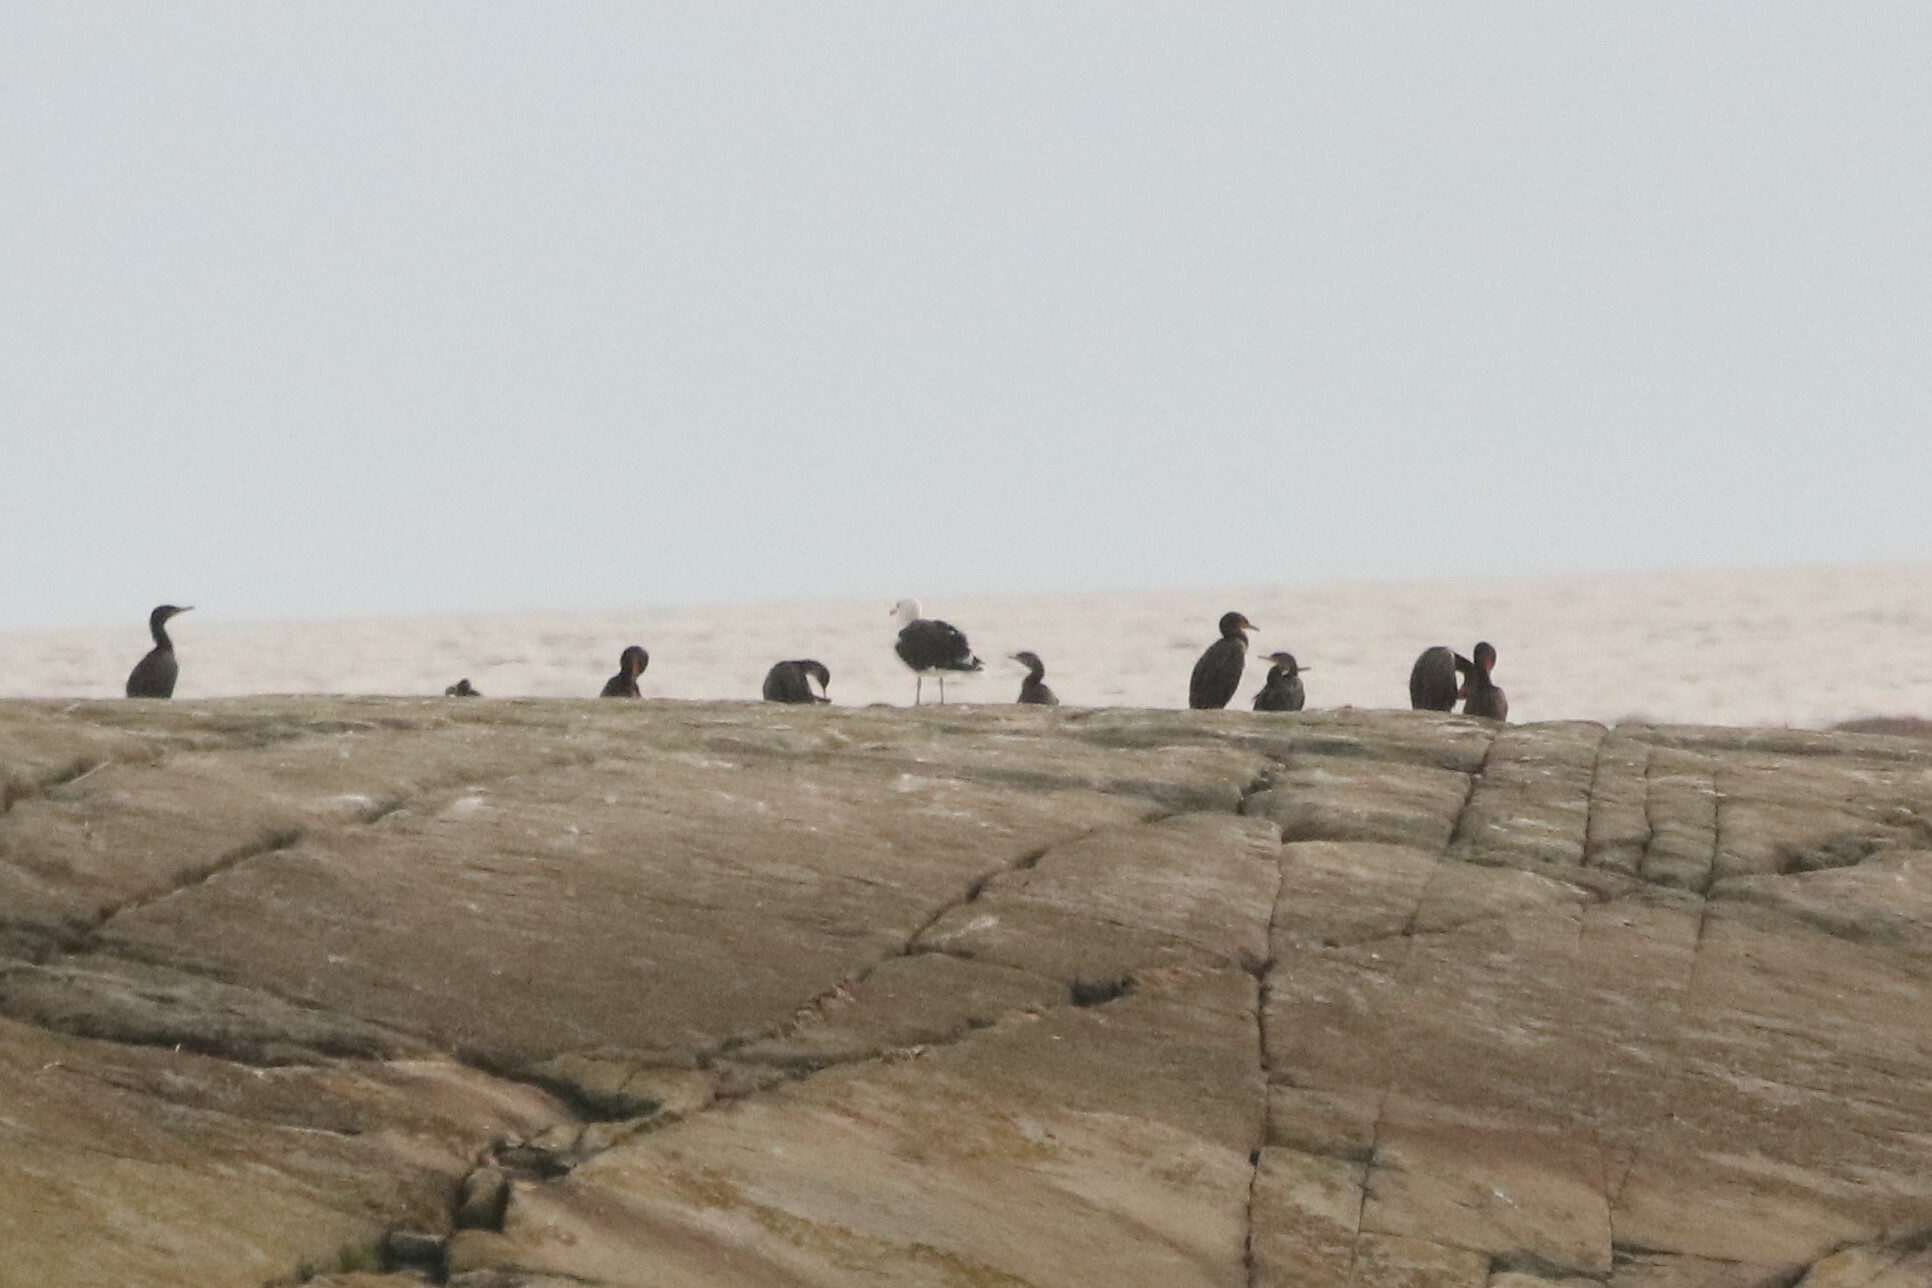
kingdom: Animalia
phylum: Chordata
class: Aves
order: Suliformes
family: Phalacrocoracidae
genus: Phalacrocorax
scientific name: Phalacrocorax auritus
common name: Double-crested cormorant
